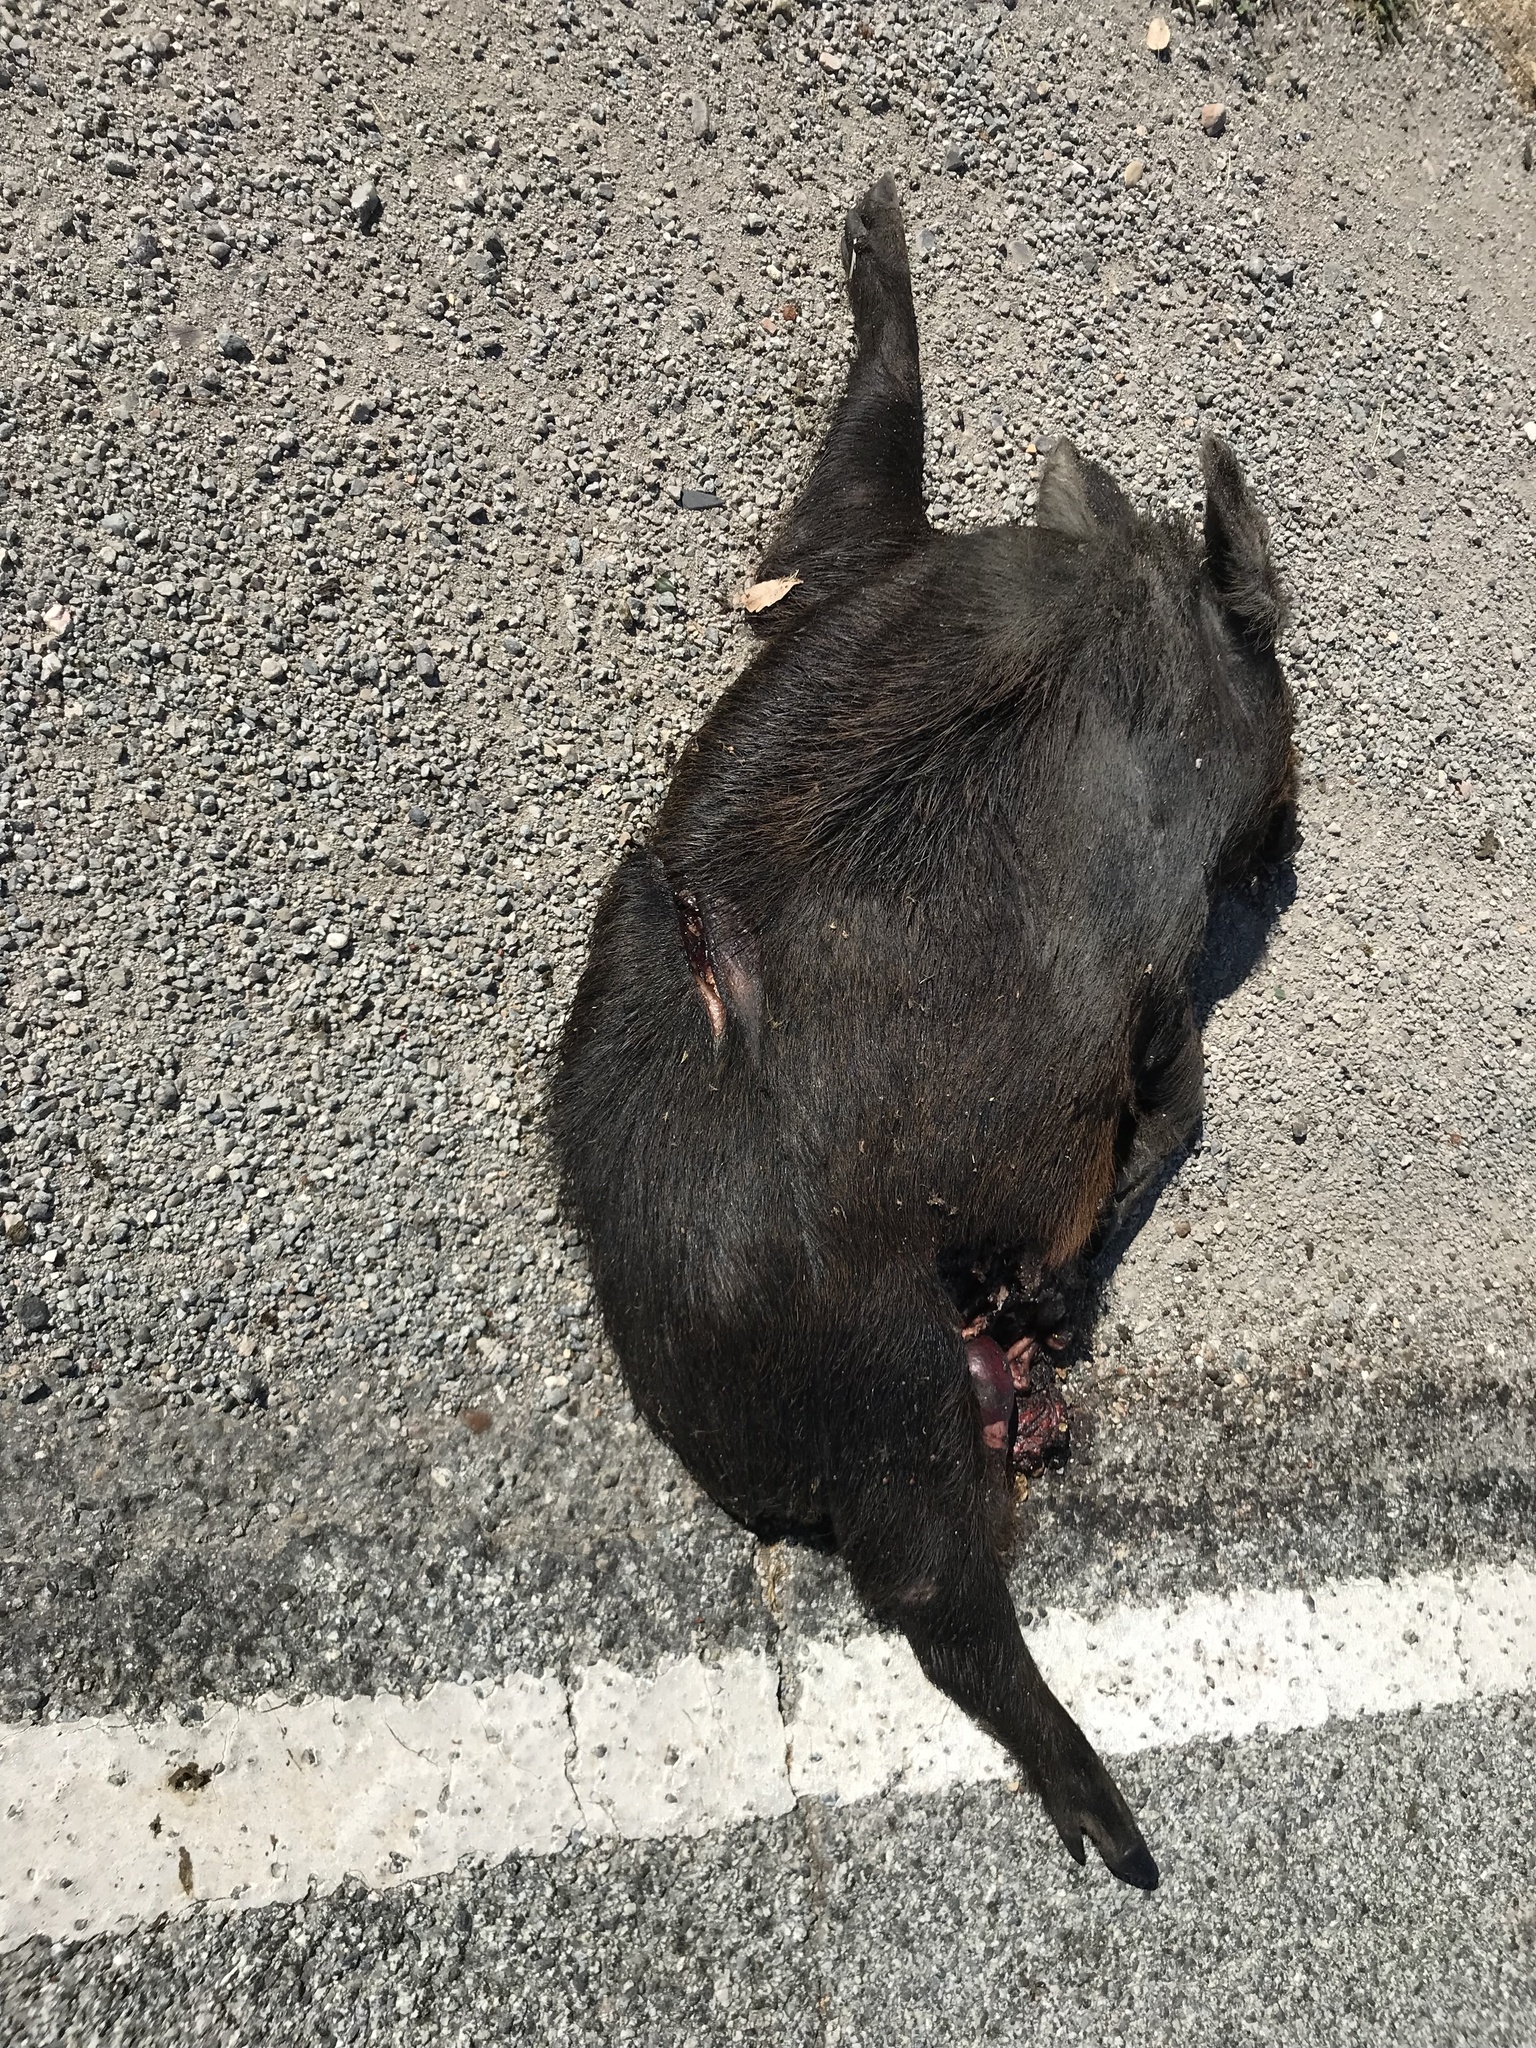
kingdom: Animalia
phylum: Chordata
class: Mammalia
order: Artiodactyla
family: Suidae
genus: Sus
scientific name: Sus scrofa
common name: Wild boar
